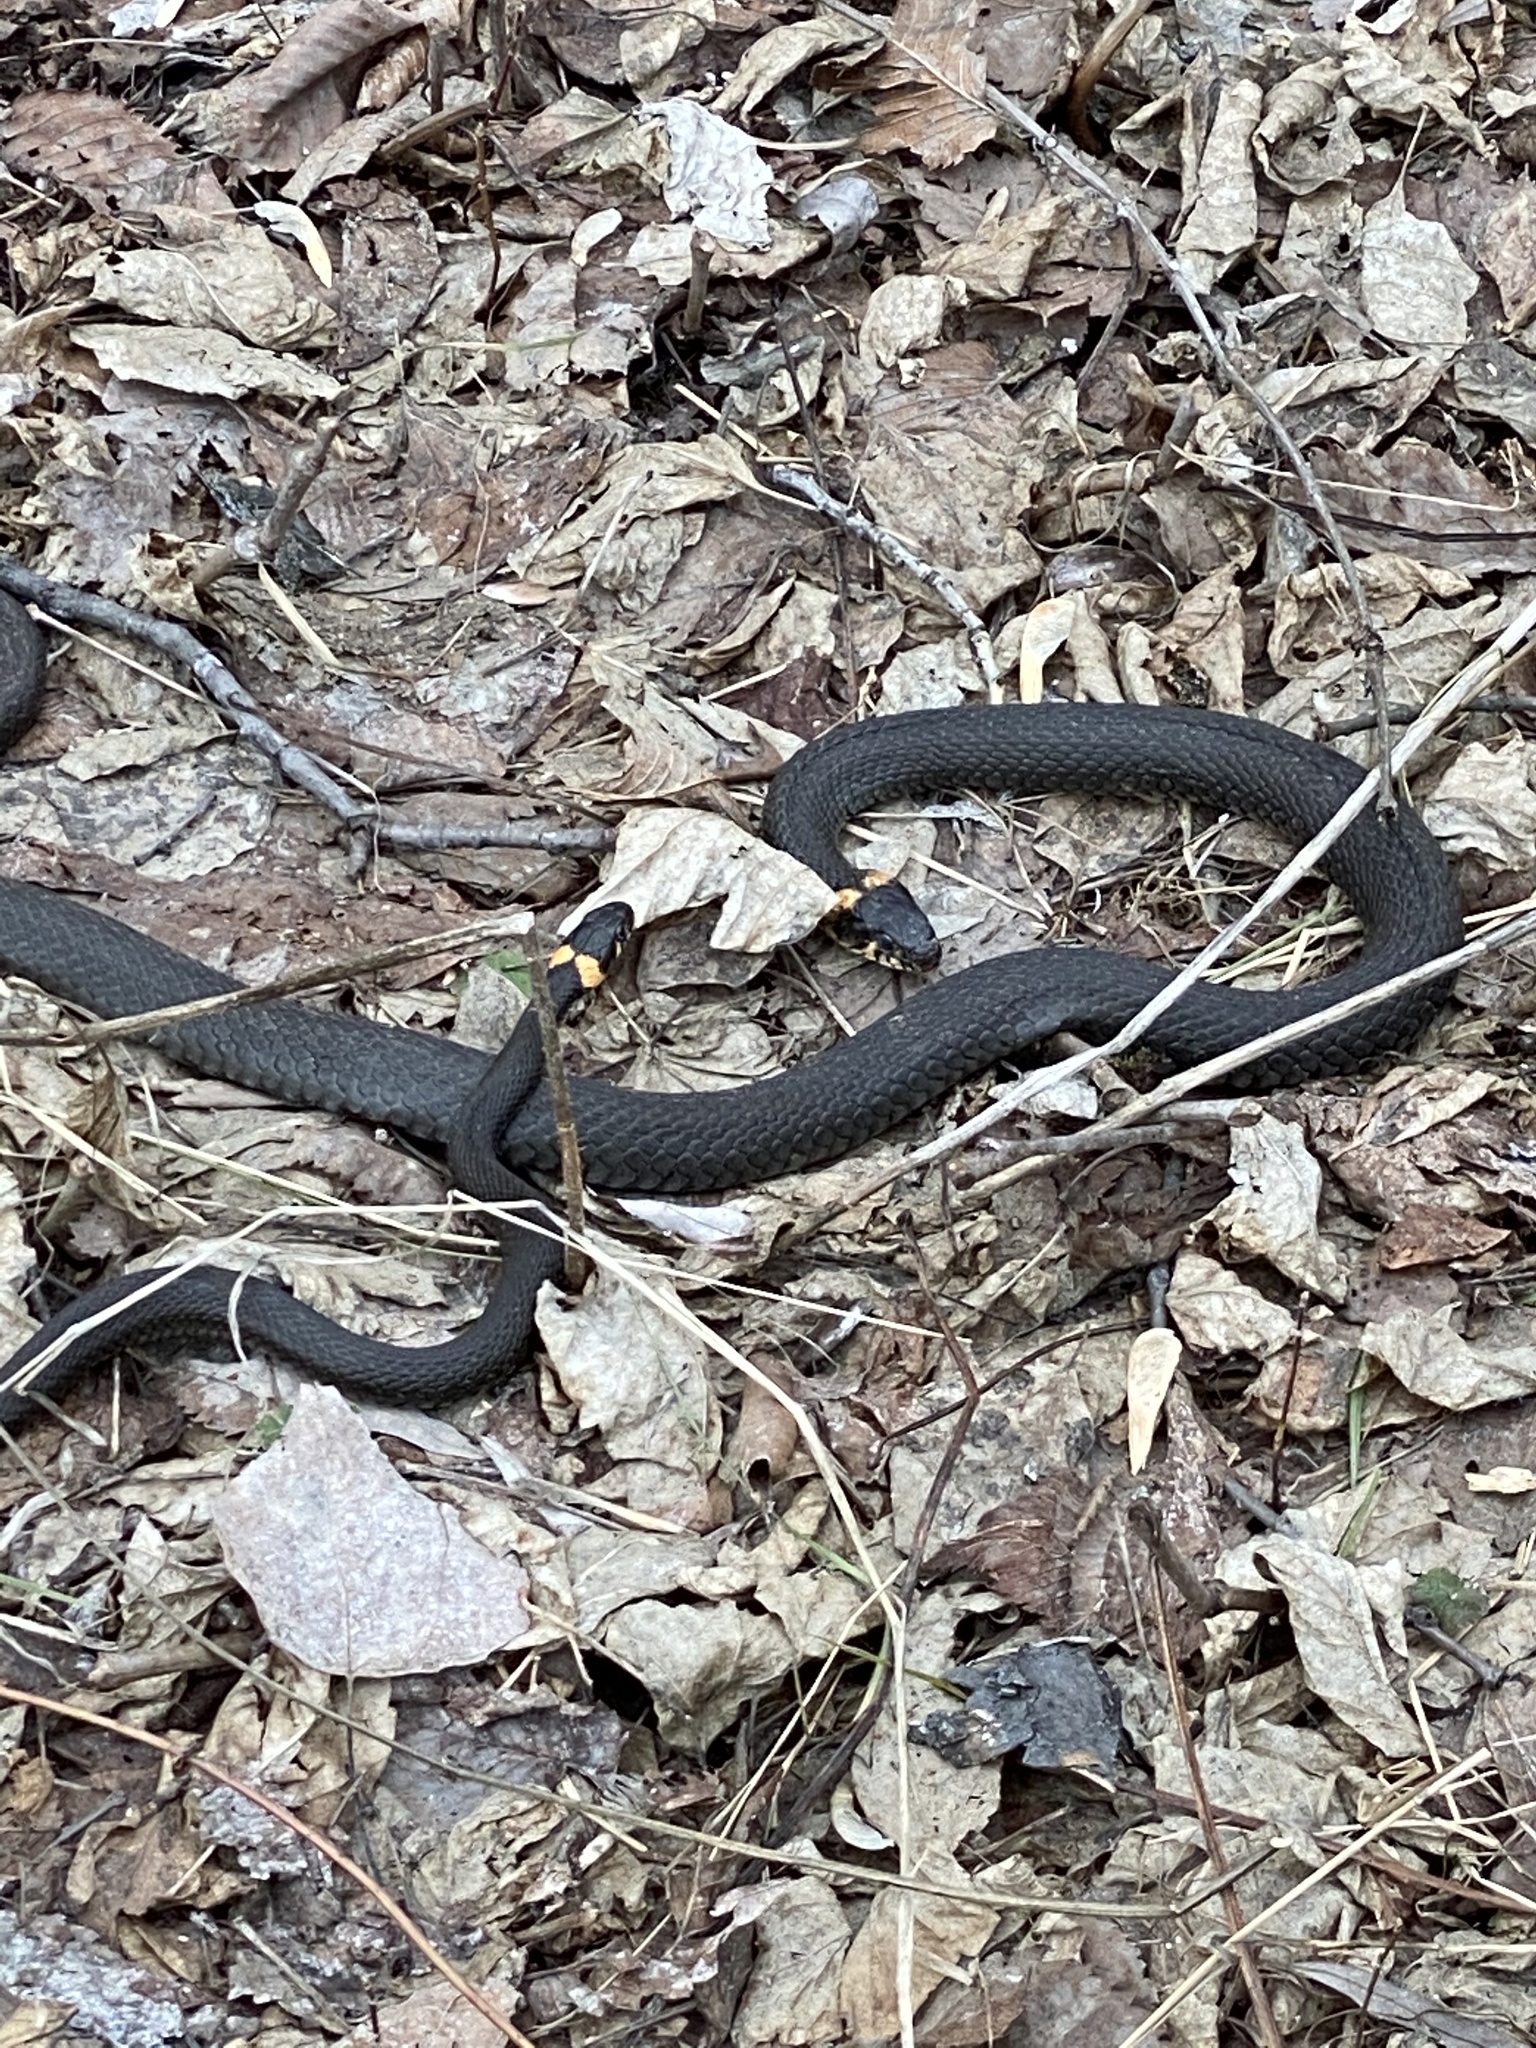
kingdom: Animalia
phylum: Chordata
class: Squamata
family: Colubridae
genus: Natrix
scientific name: Natrix natrix
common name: Grass snake
